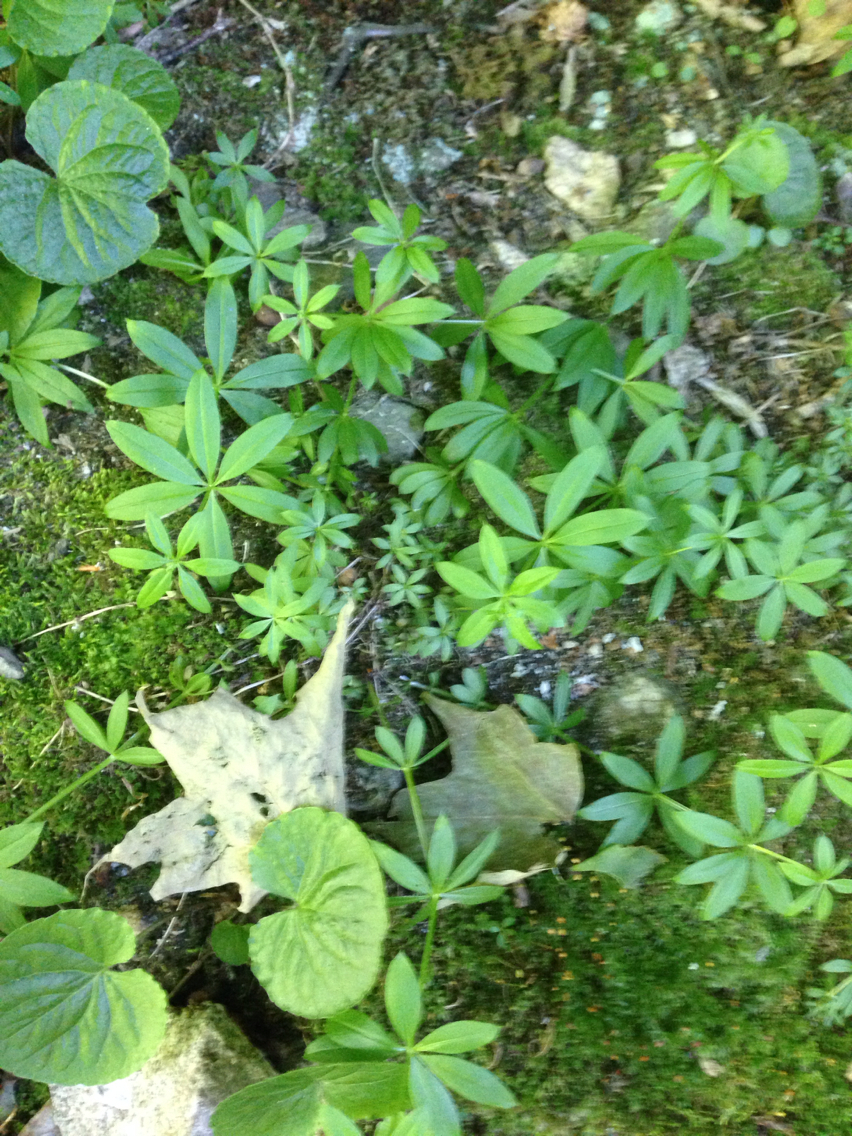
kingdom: Plantae
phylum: Tracheophyta
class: Magnoliopsida
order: Gentianales
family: Rubiaceae
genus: Galium
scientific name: Galium triflorum
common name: Fragrant bedstraw
